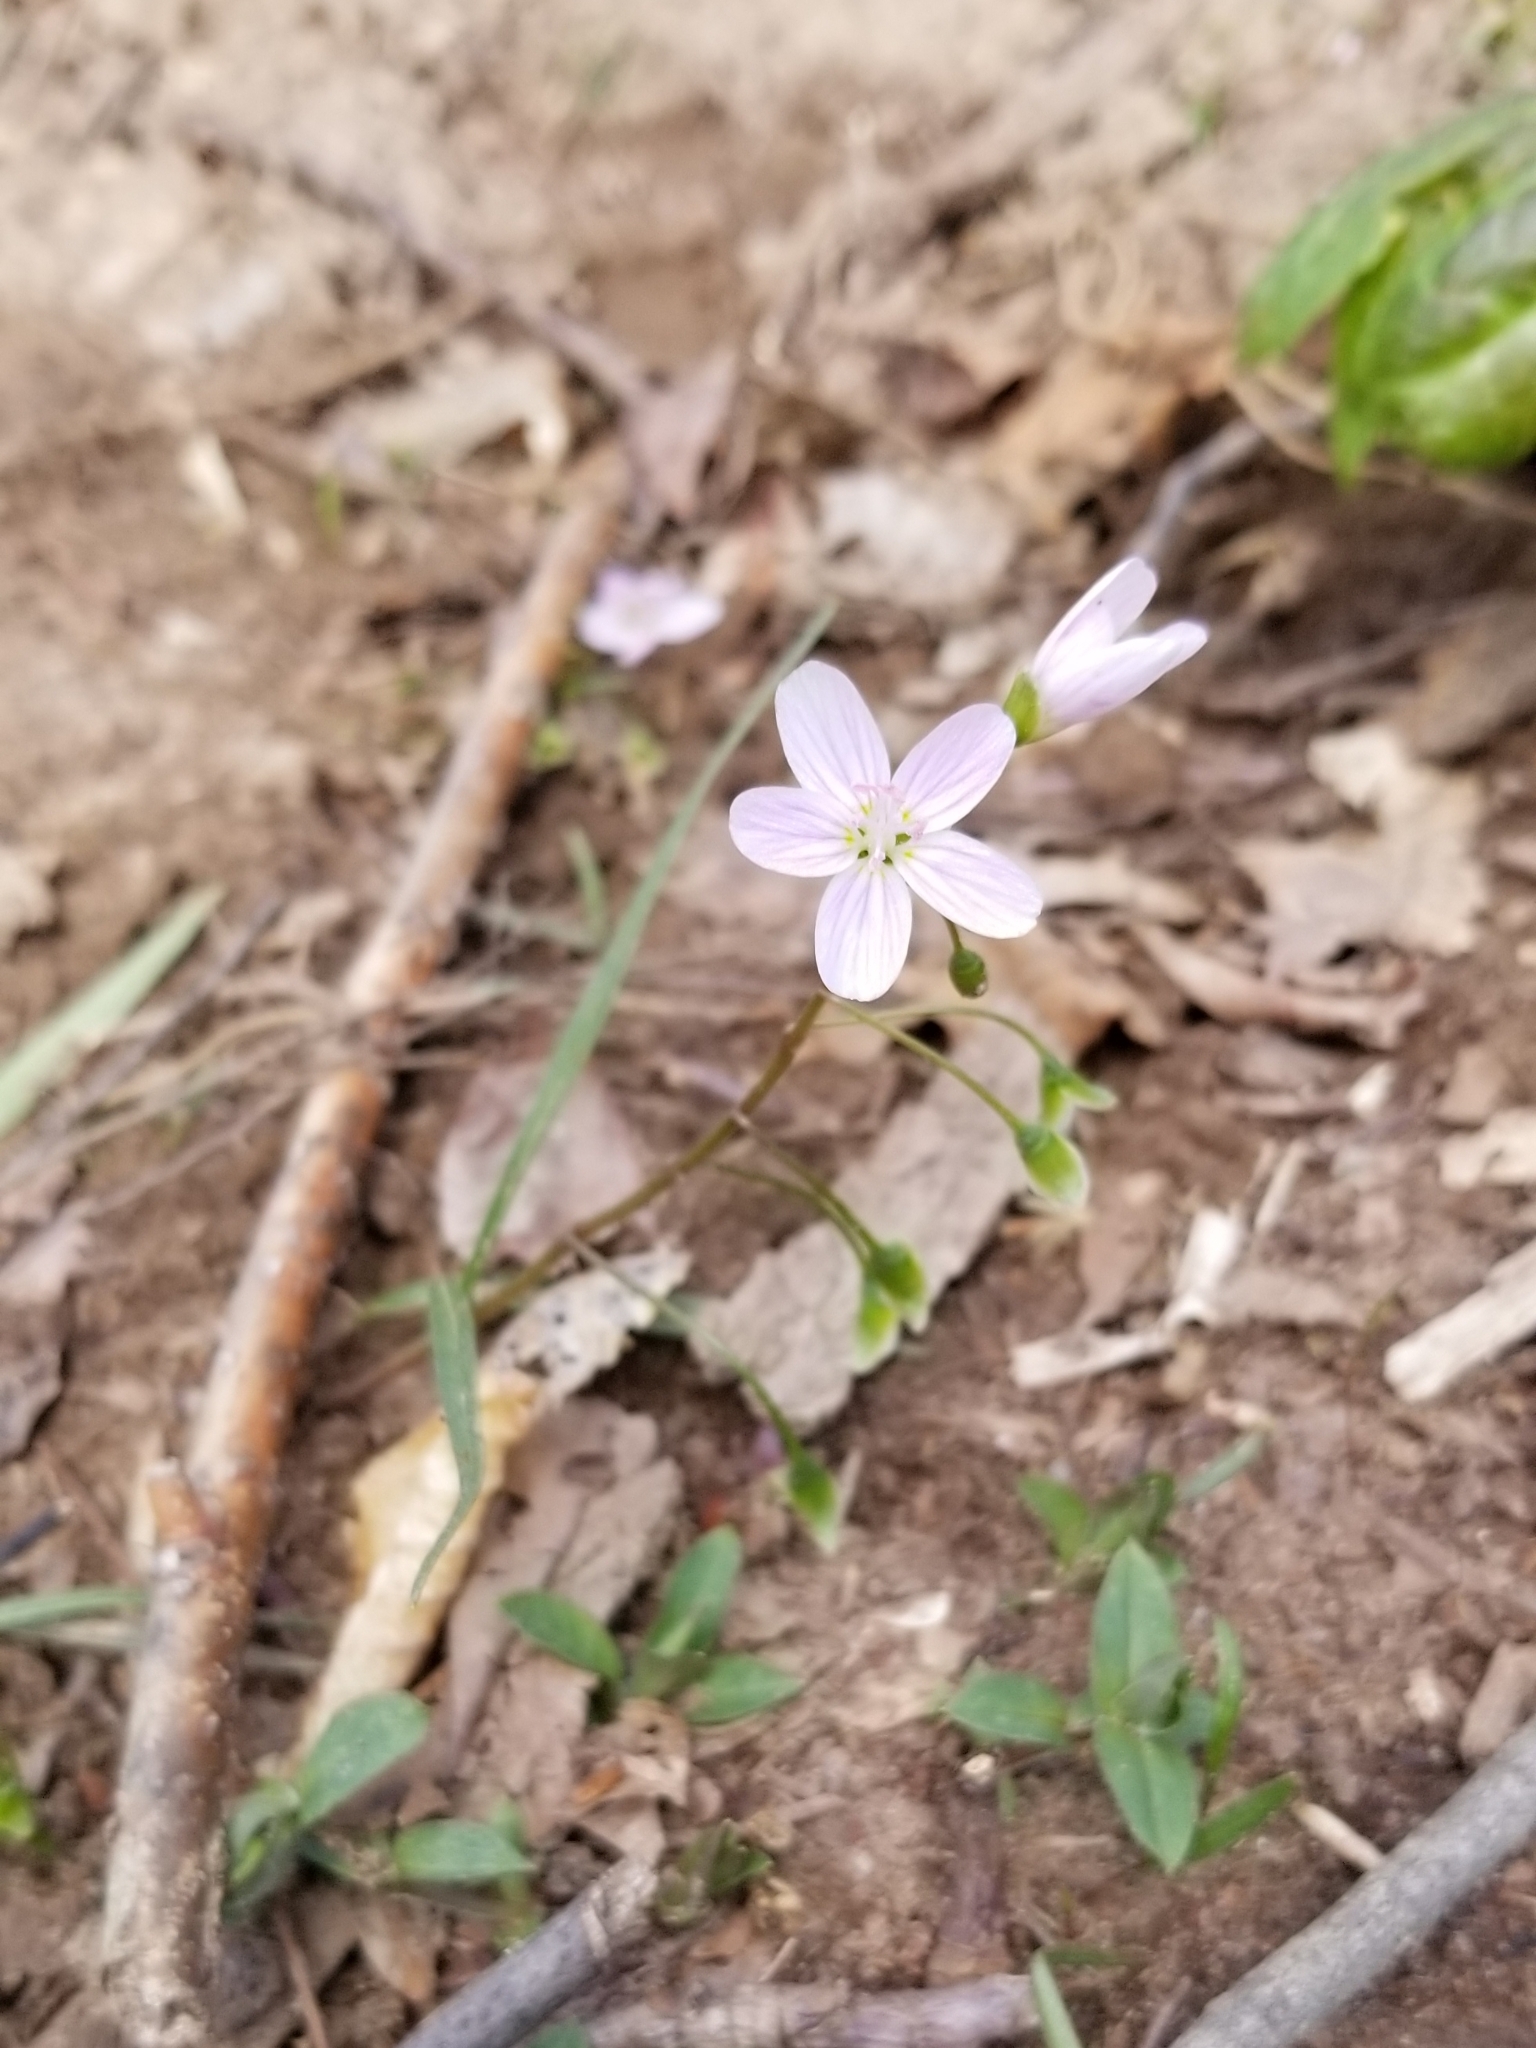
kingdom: Plantae
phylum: Tracheophyta
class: Magnoliopsida
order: Caryophyllales
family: Montiaceae
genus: Claytonia
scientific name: Claytonia virginica
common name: Virginia springbeauty
